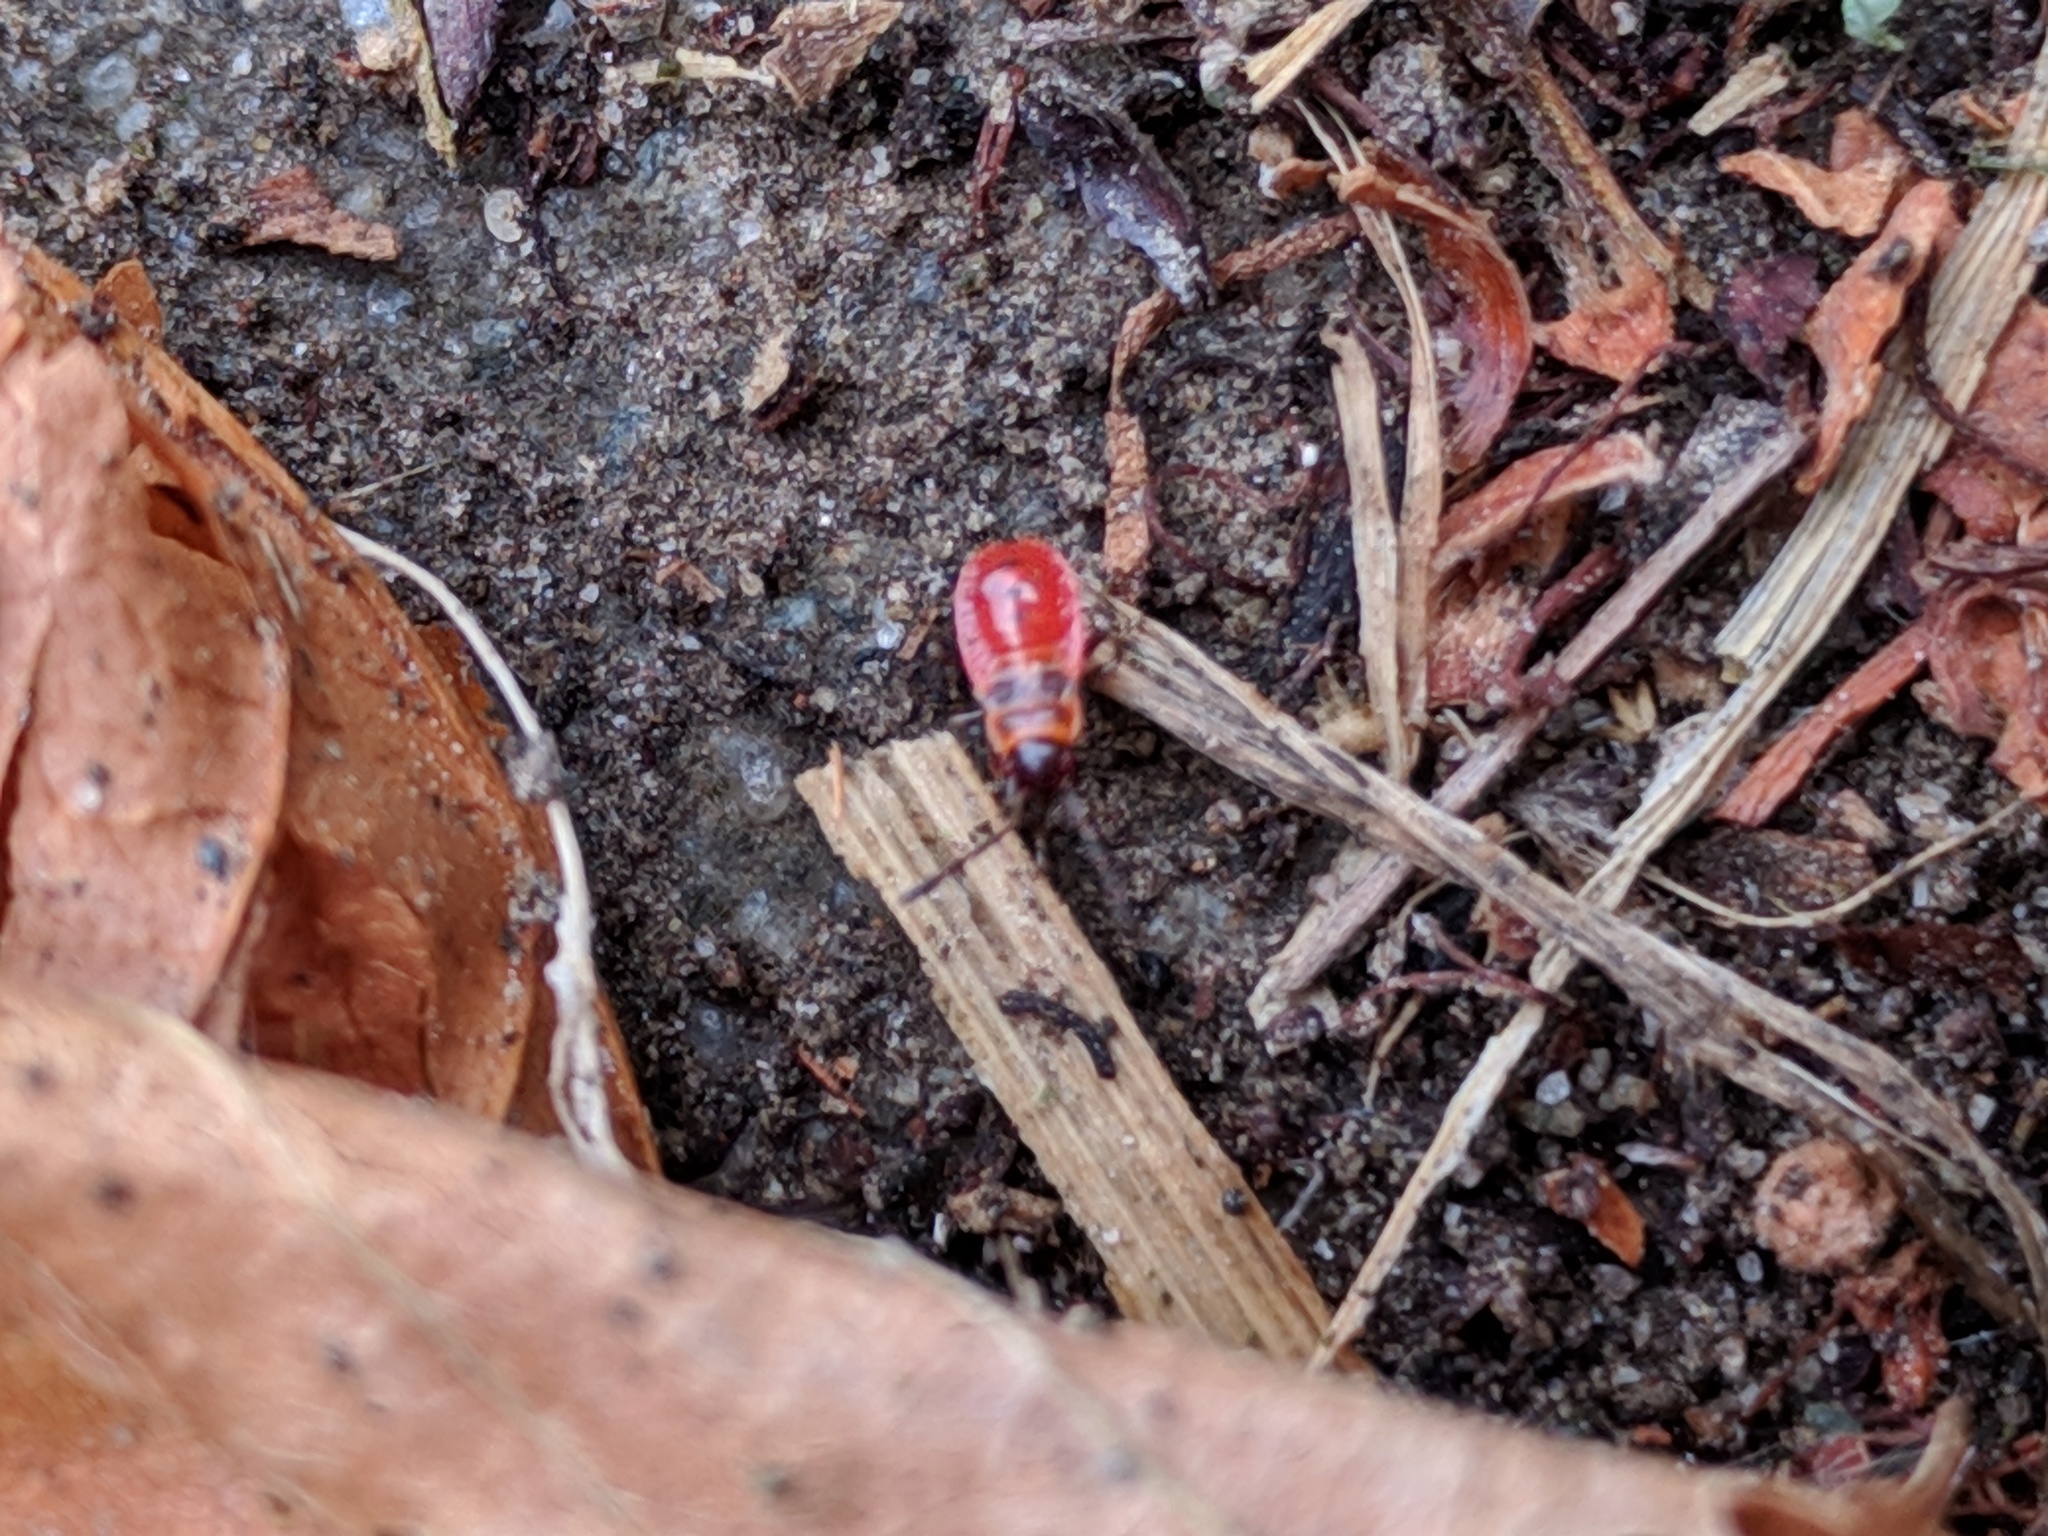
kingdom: Animalia
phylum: Arthropoda
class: Insecta
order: Hemiptera
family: Pyrrhocoridae
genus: Pyrrhocoris
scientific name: Pyrrhocoris apterus
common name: Firebug
